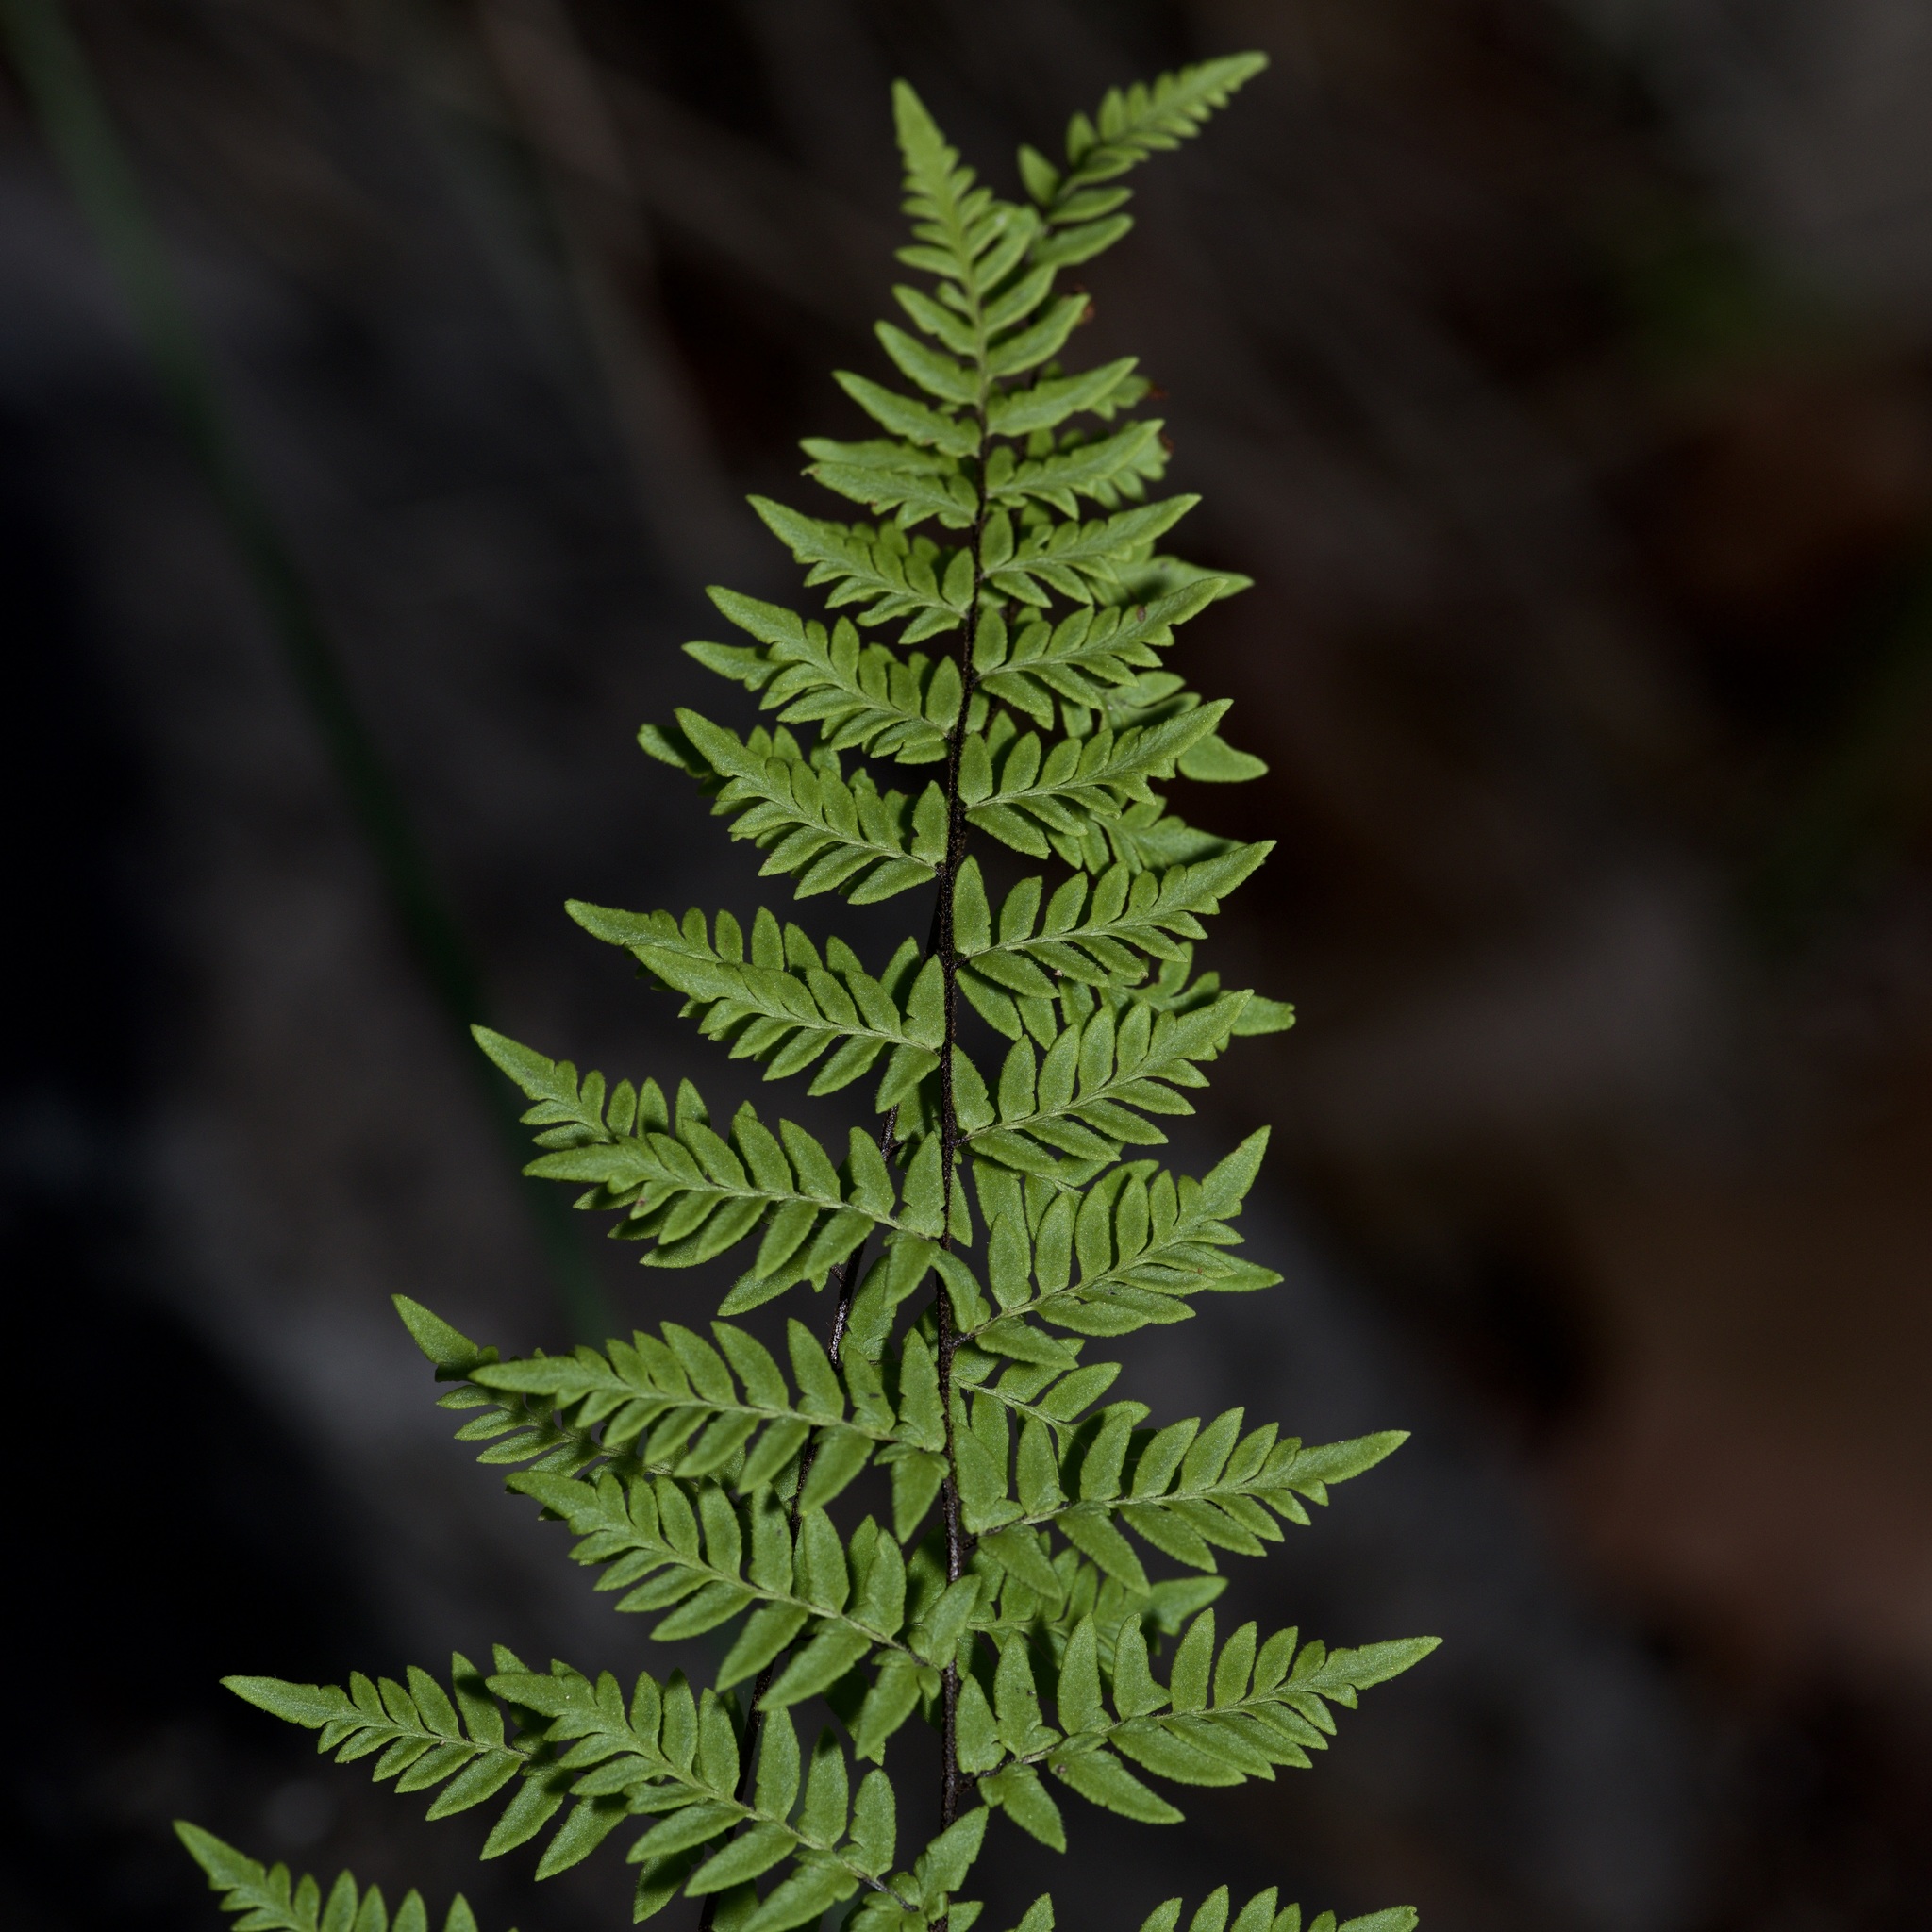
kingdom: Plantae
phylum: Tracheophyta
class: Polypodiopsida
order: Polypodiales
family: Pteridaceae
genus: Myriopteris
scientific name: Myriopteris alabamensis
